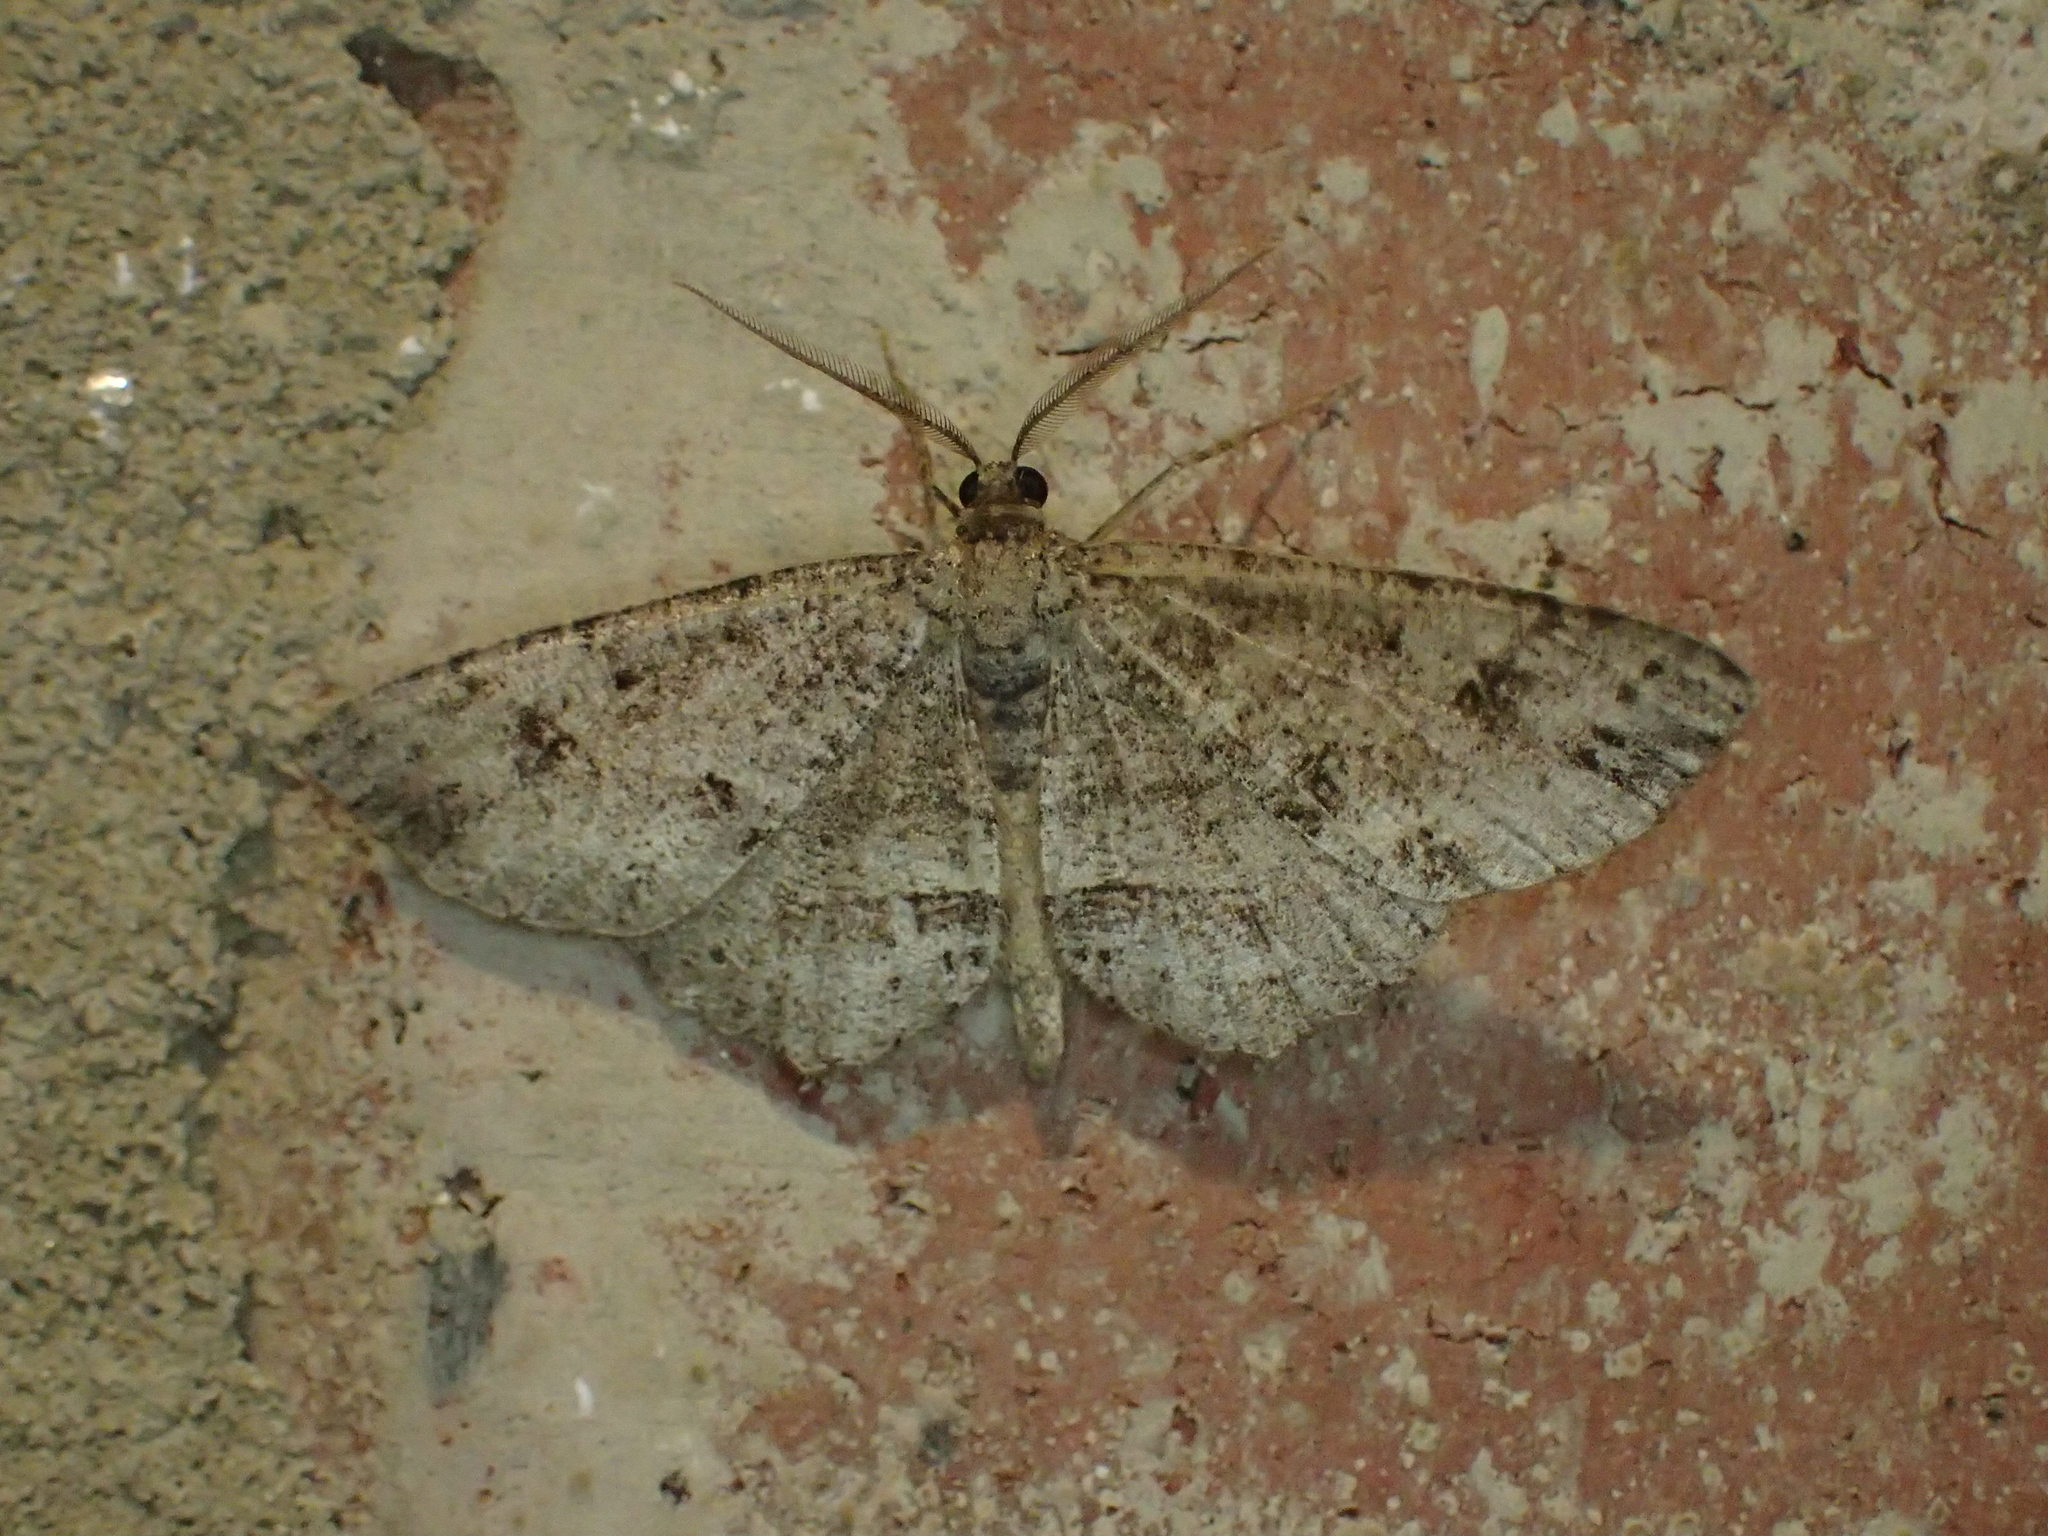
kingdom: Animalia
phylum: Arthropoda
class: Insecta
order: Lepidoptera
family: Geometridae
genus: Melanolophia
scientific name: Melanolophia signataria
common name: Signate melanolophia
